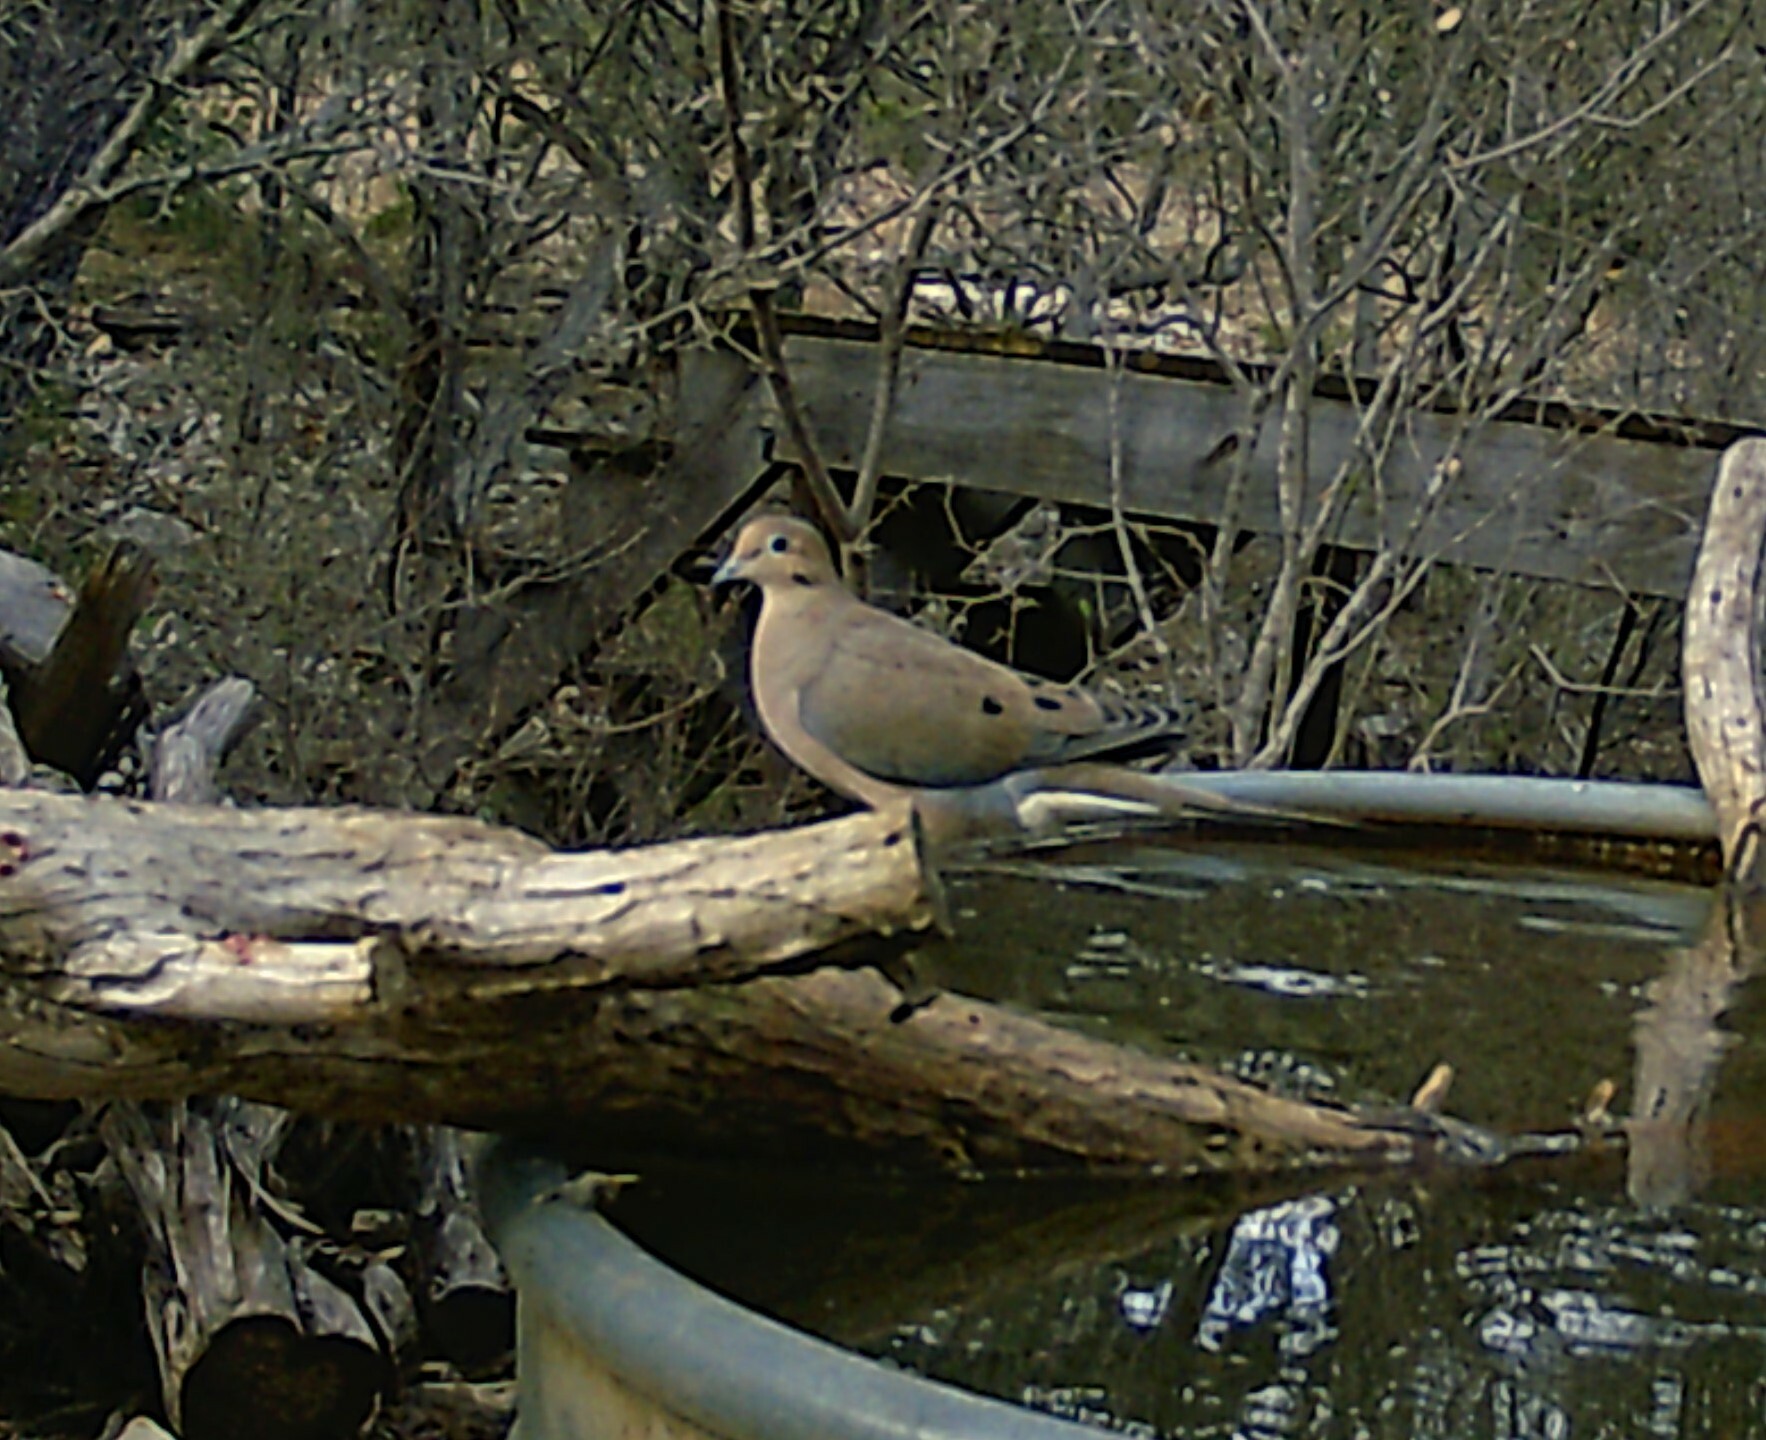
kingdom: Animalia
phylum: Chordata
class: Aves
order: Columbiformes
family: Columbidae
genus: Zenaida
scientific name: Zenaida macroura
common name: Mourning dove
